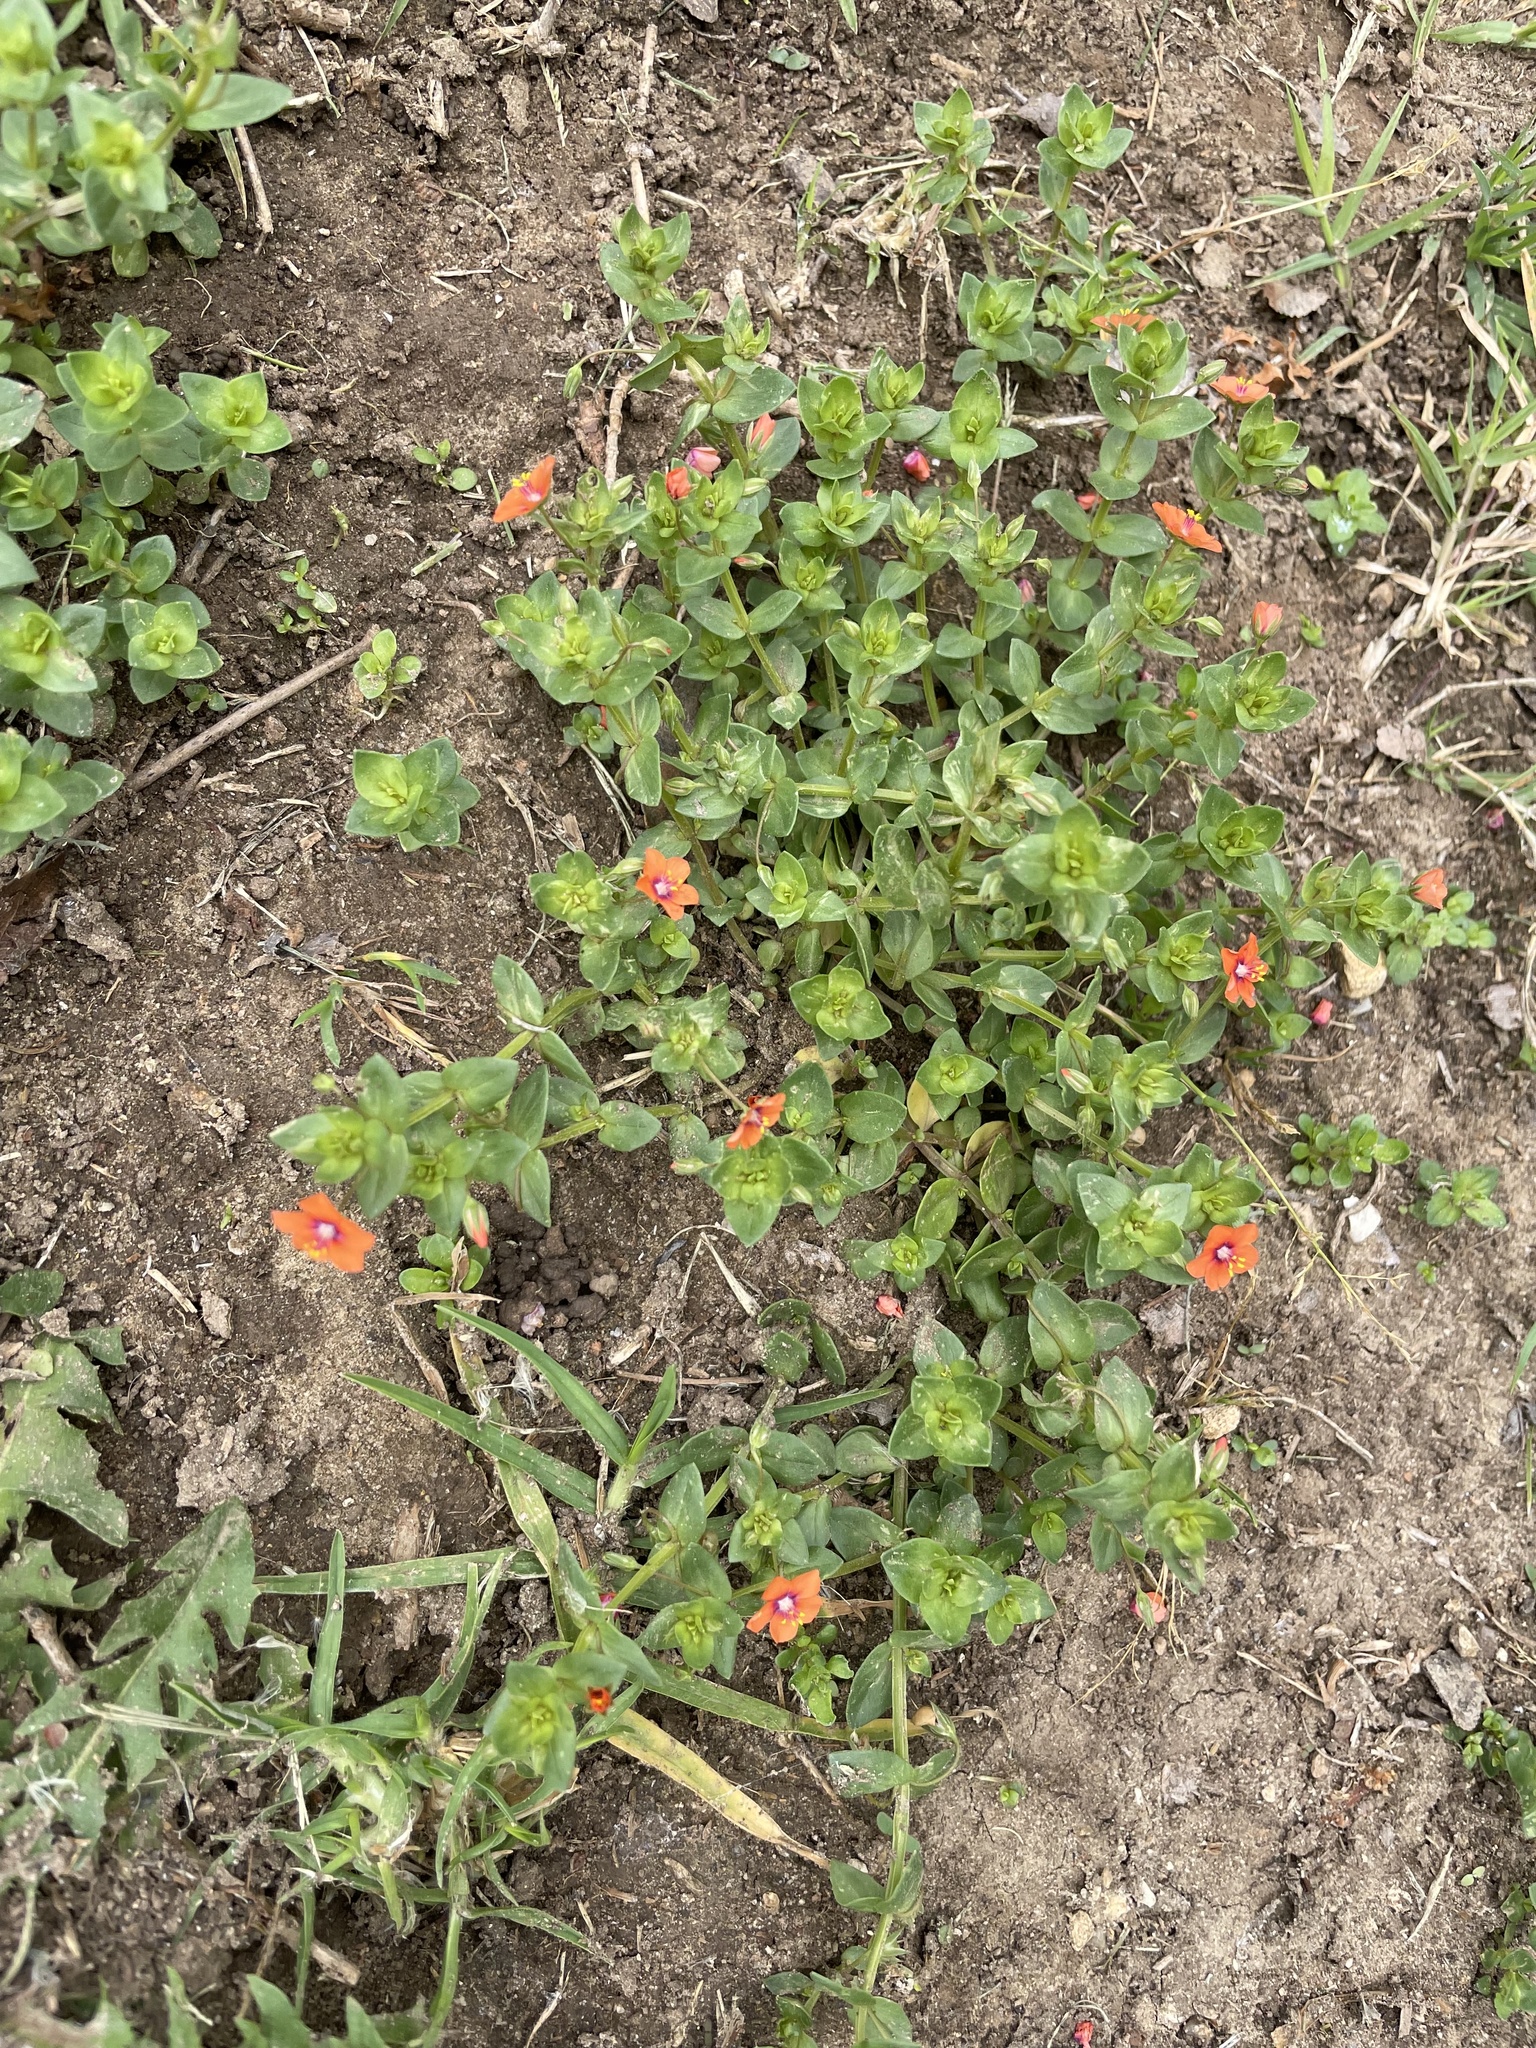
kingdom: Plantae
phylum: Tracheophyta
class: Magnoliopsida
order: Ericales
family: Primulaceae
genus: Lysimachia
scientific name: Lysimachia arvensis
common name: Scarlet pimpernel
